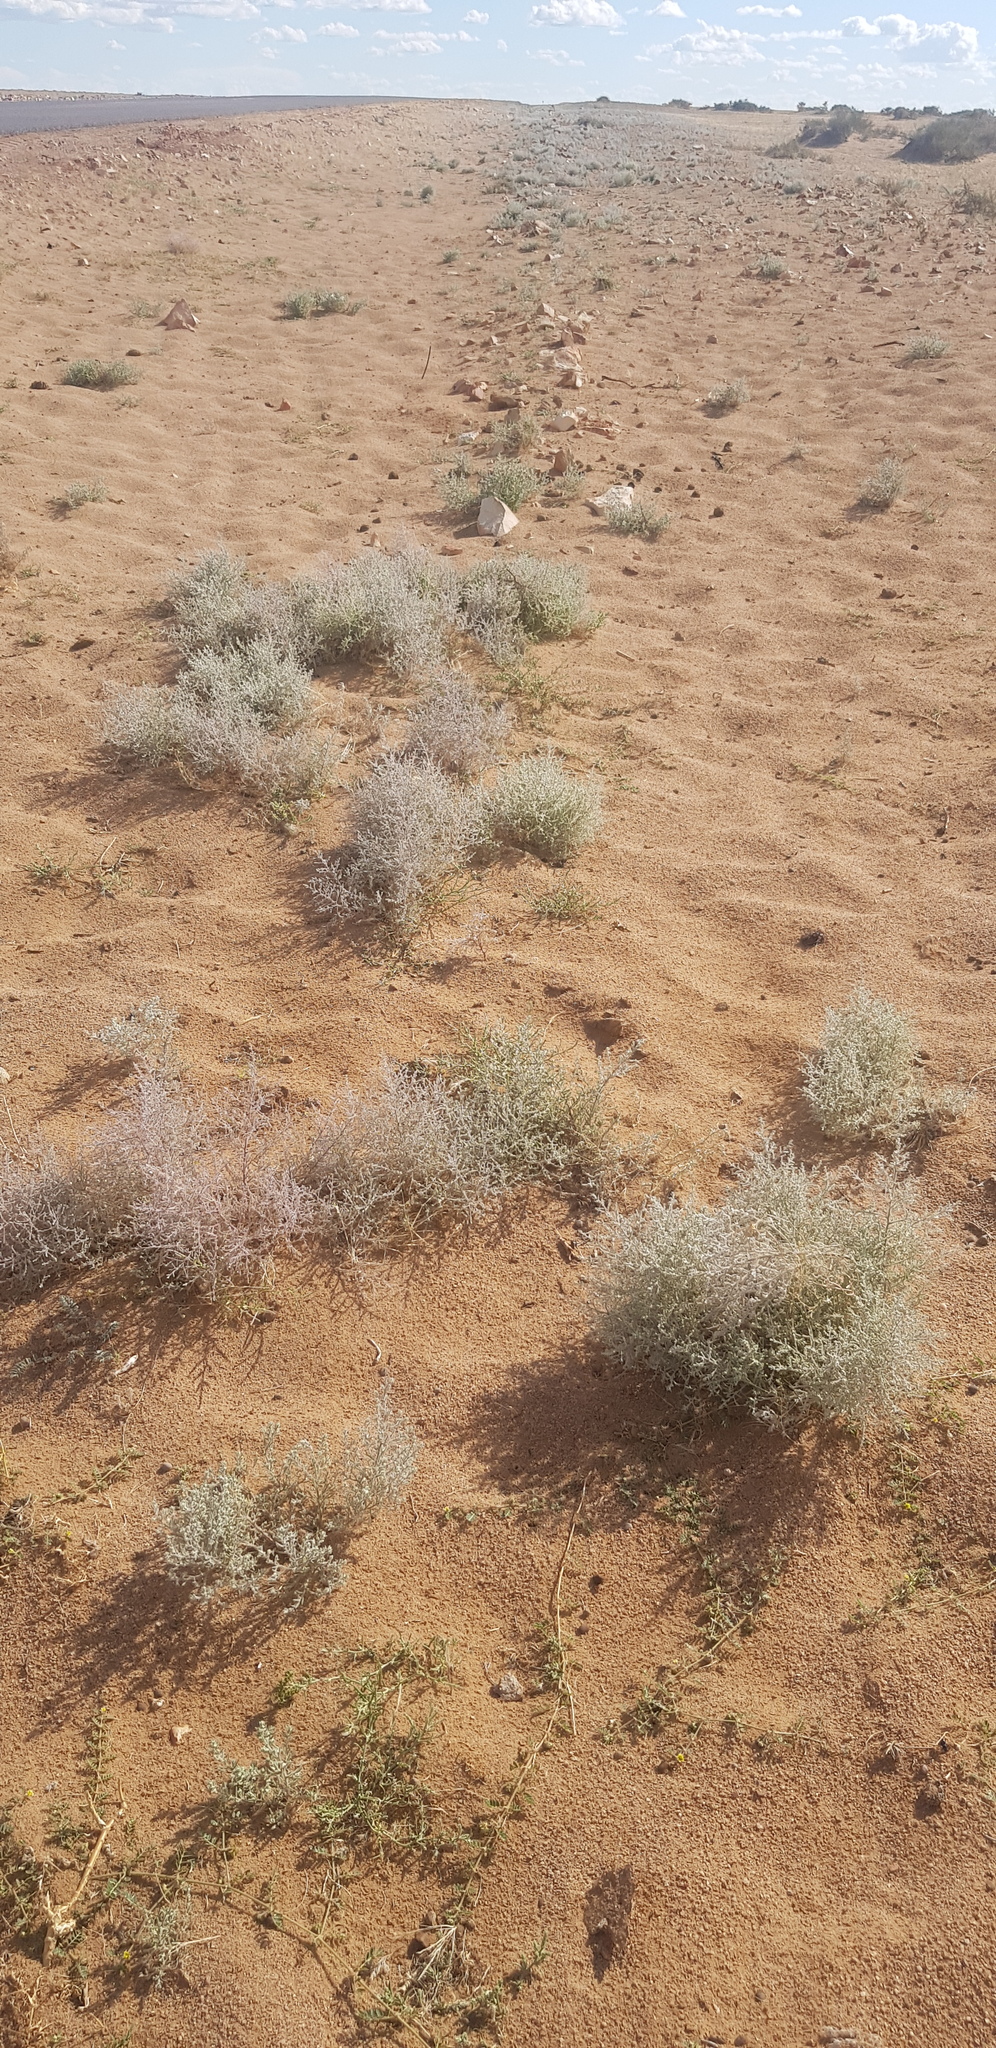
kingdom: Plantae
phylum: Tracheophyta
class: Magnoliopsida
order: Caryophyllales
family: Amaranthaceae
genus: Grubovia
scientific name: Grubovia dasyphylla
